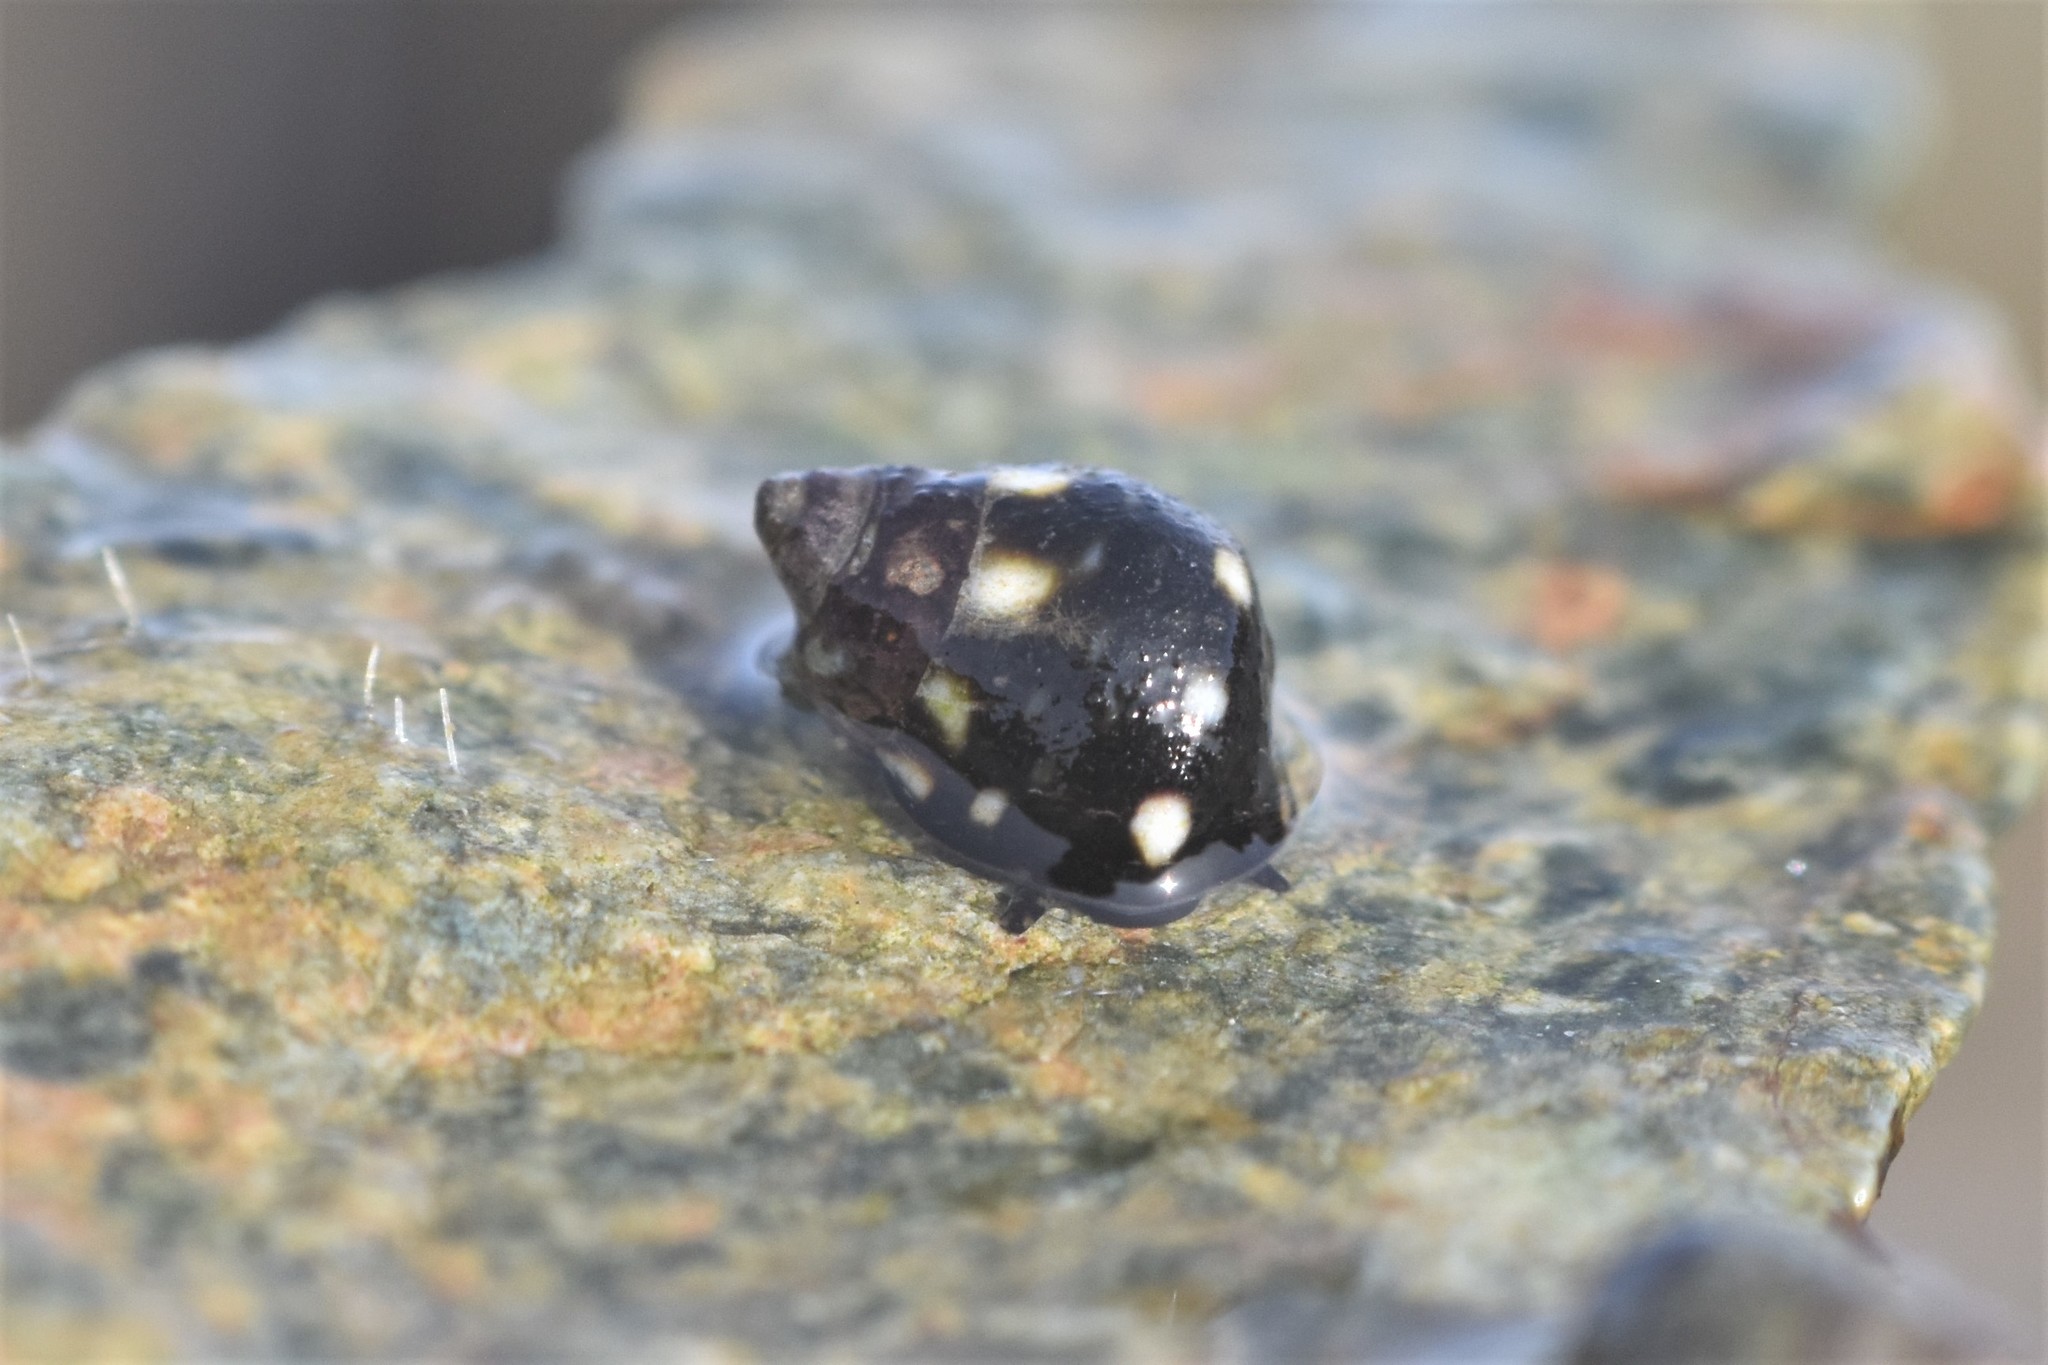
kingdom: Animalia
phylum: Mollusca
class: Gastropoda
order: Littorinimorpha
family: Littorinidae
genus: Littorina
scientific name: Littorina scutulata
